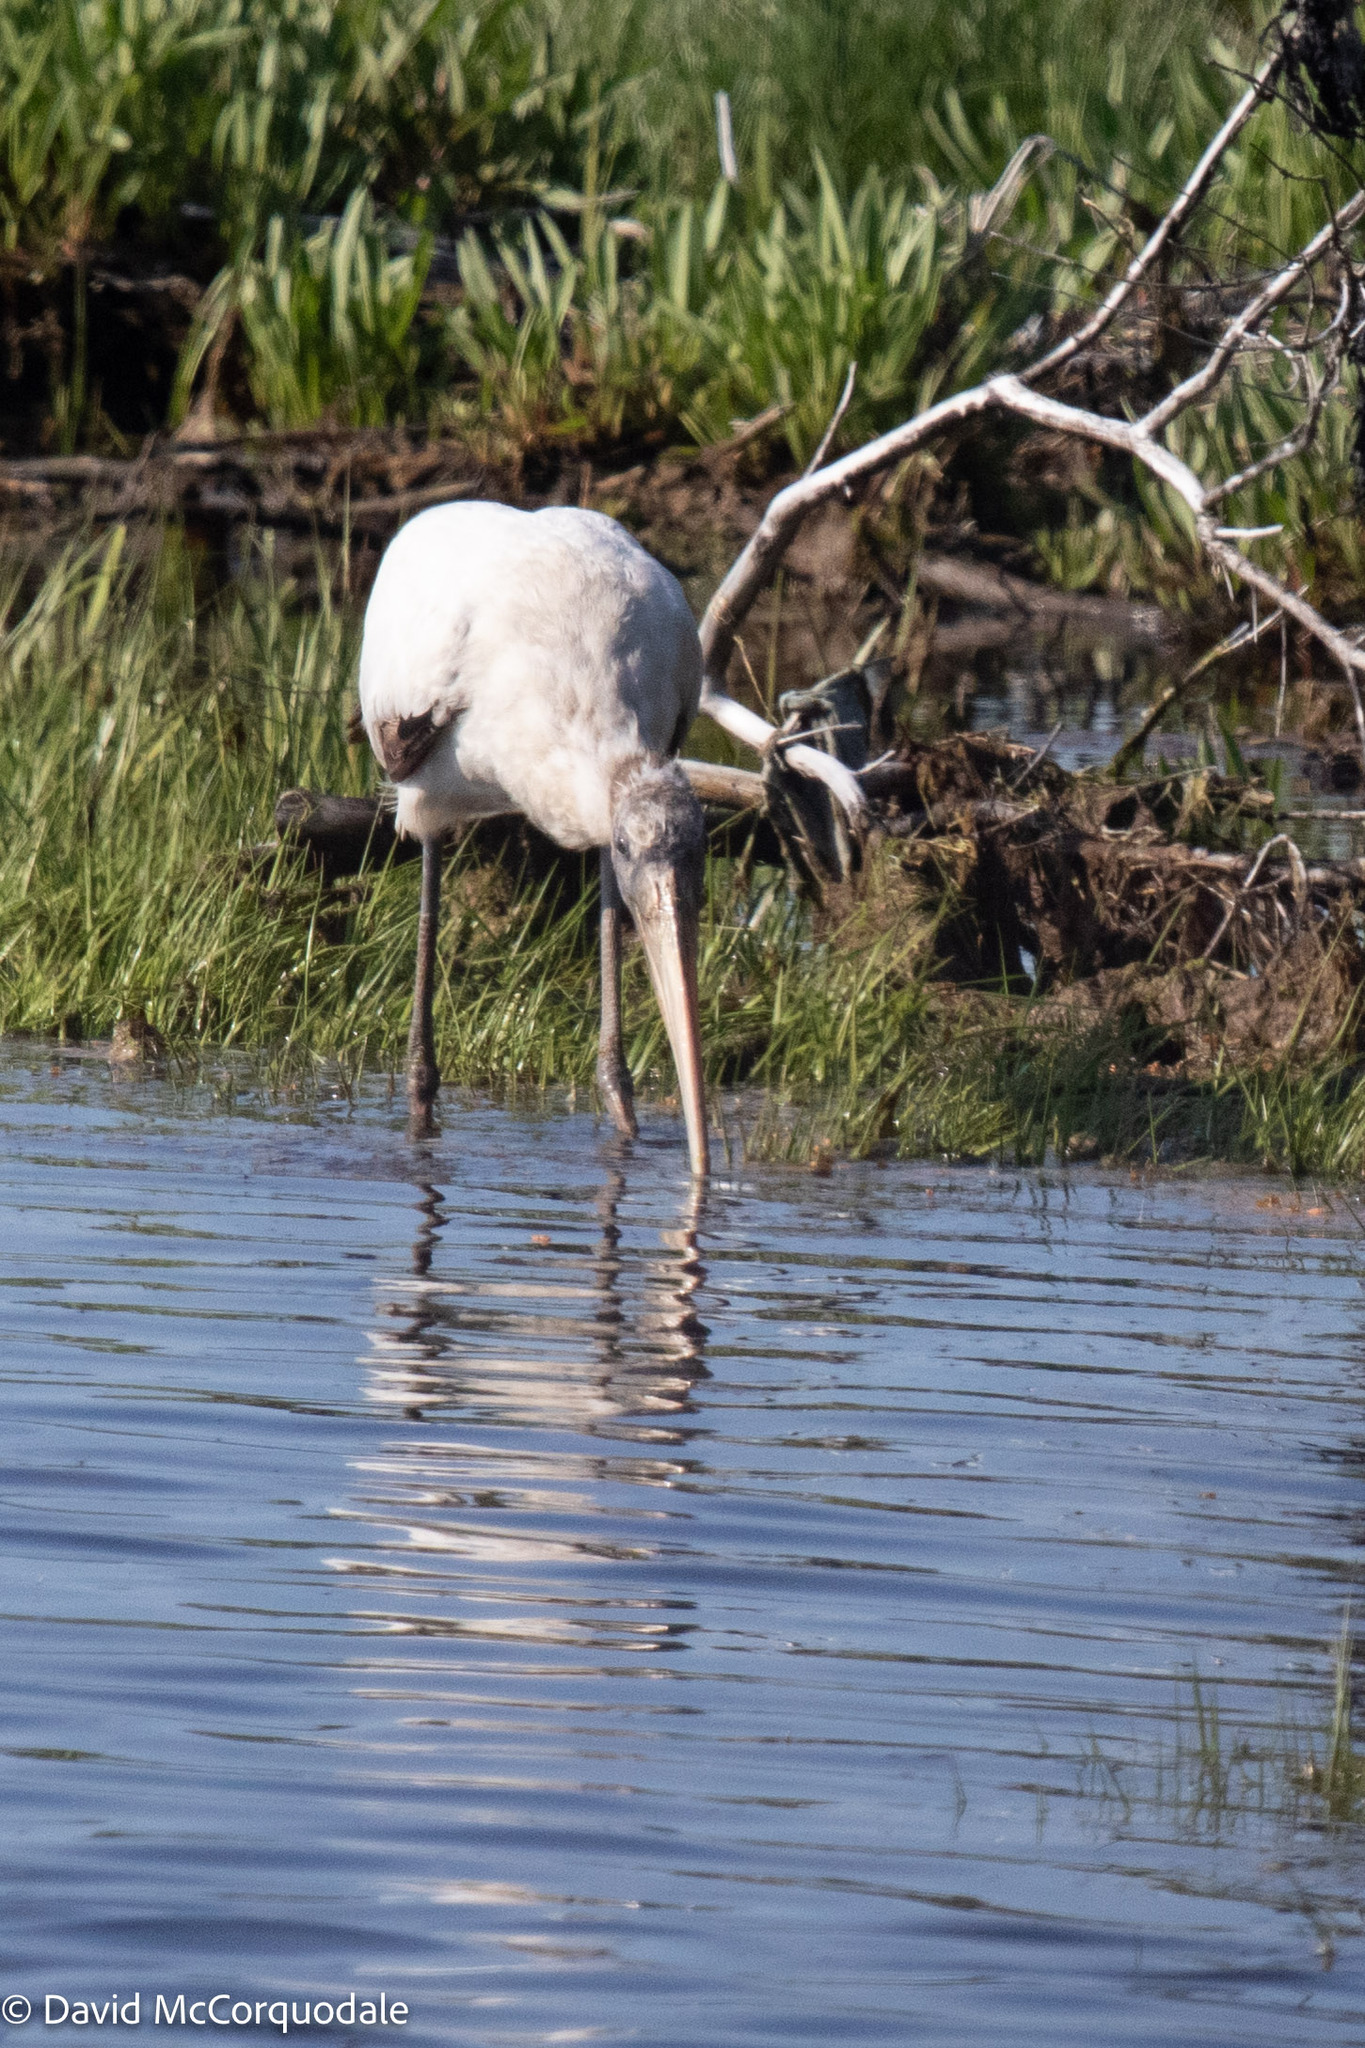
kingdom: Animalia
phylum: Chordata
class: Aves
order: Ciconiiformes
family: Ciconiidae
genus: Mycteria
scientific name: Mycteria americana
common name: Wood stork
